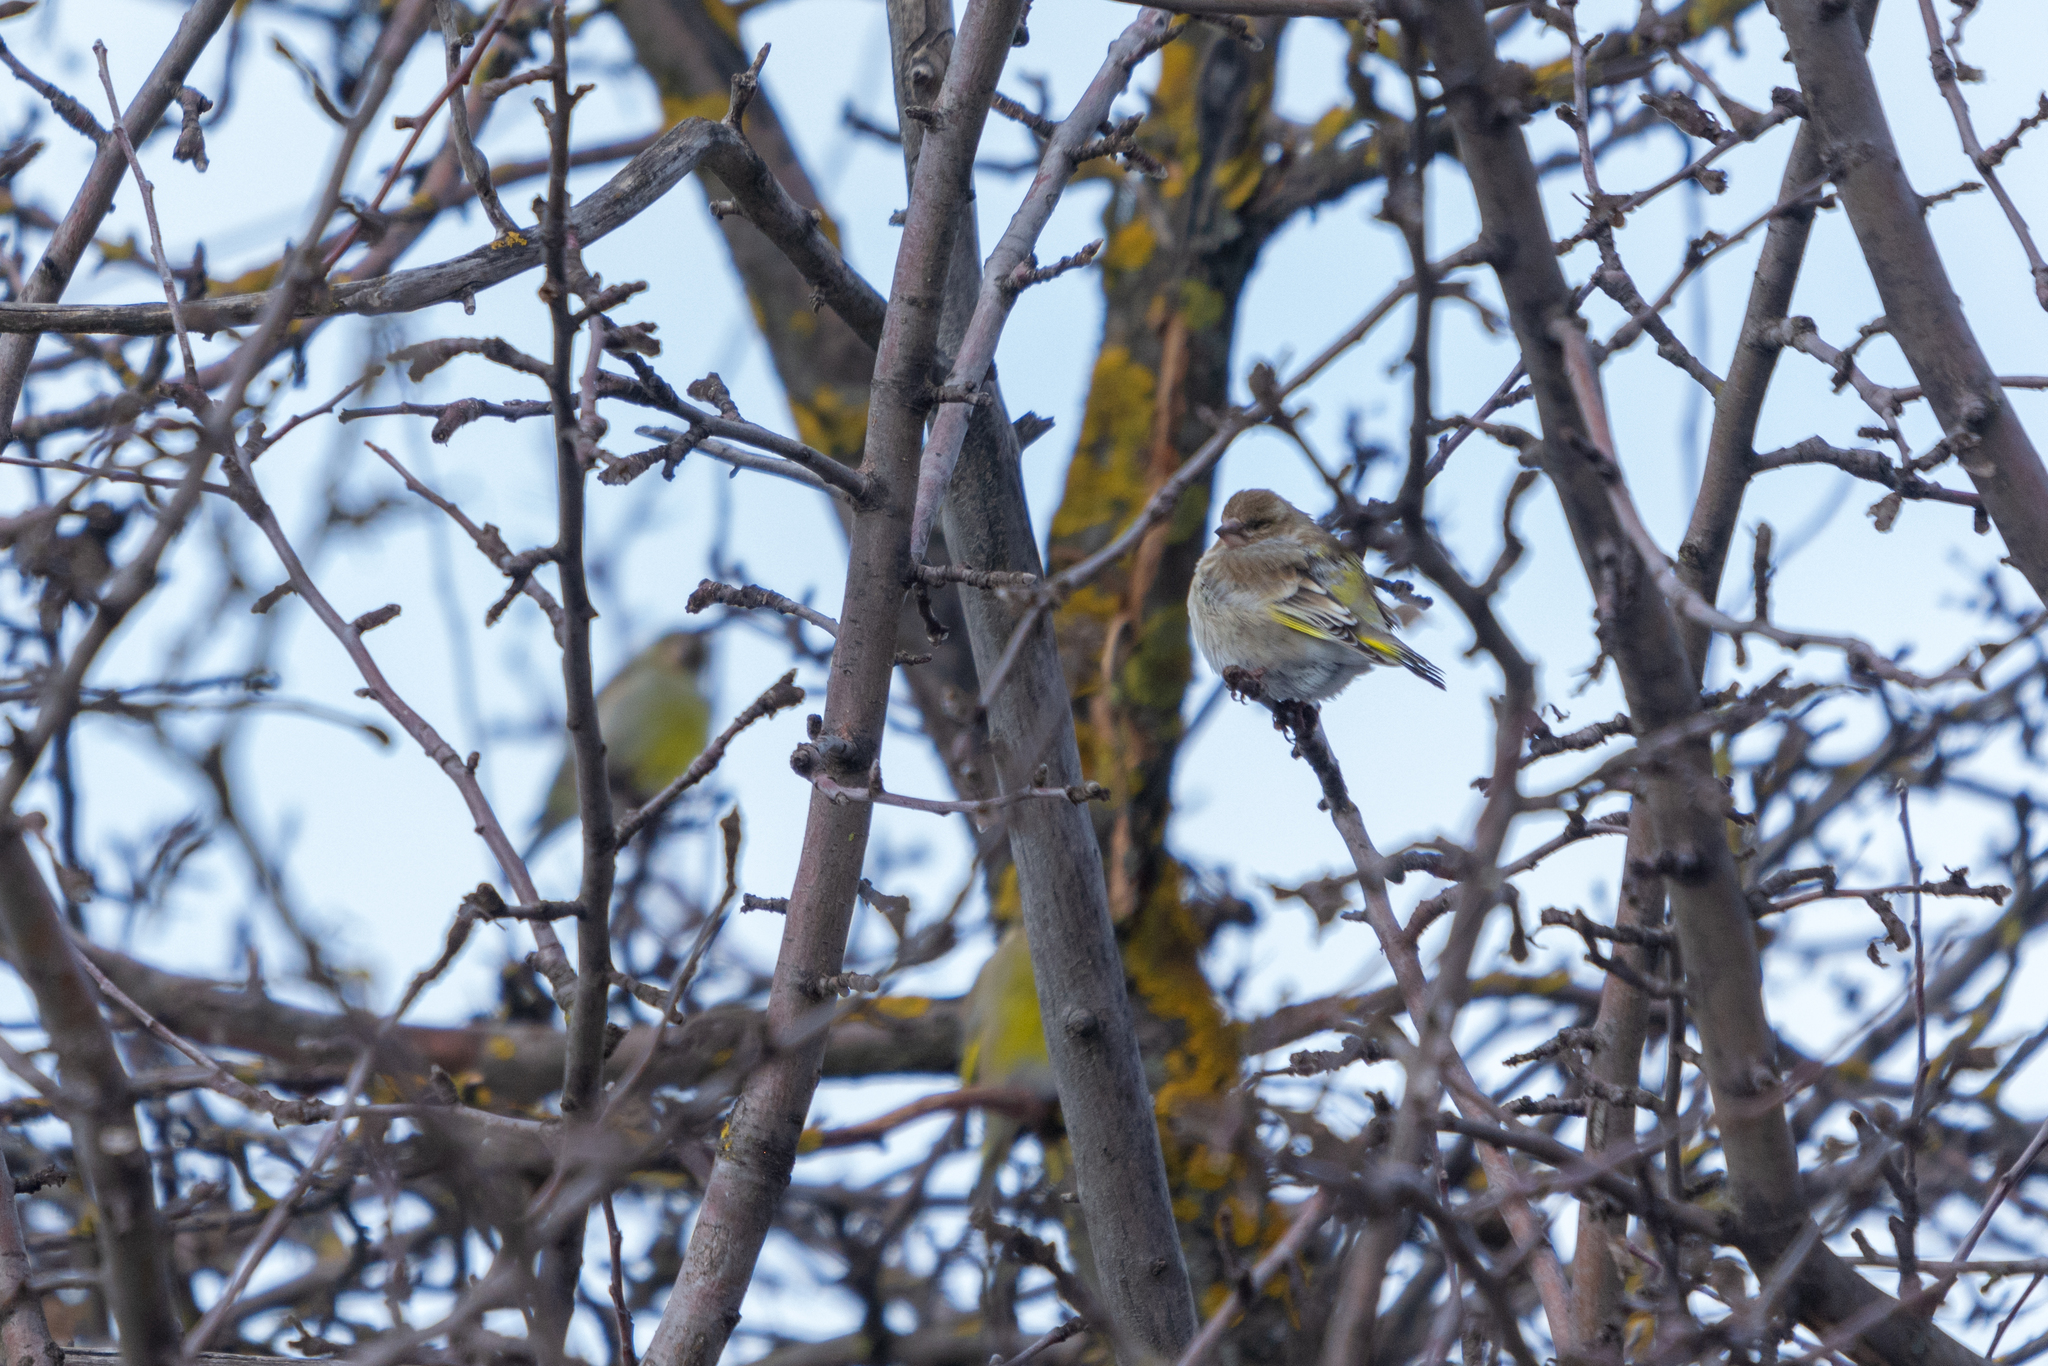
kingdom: Plantae
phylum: Tracheophyta
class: Liliopsida
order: Poales
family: Poaceae
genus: Chloris
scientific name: Chloris chloris
